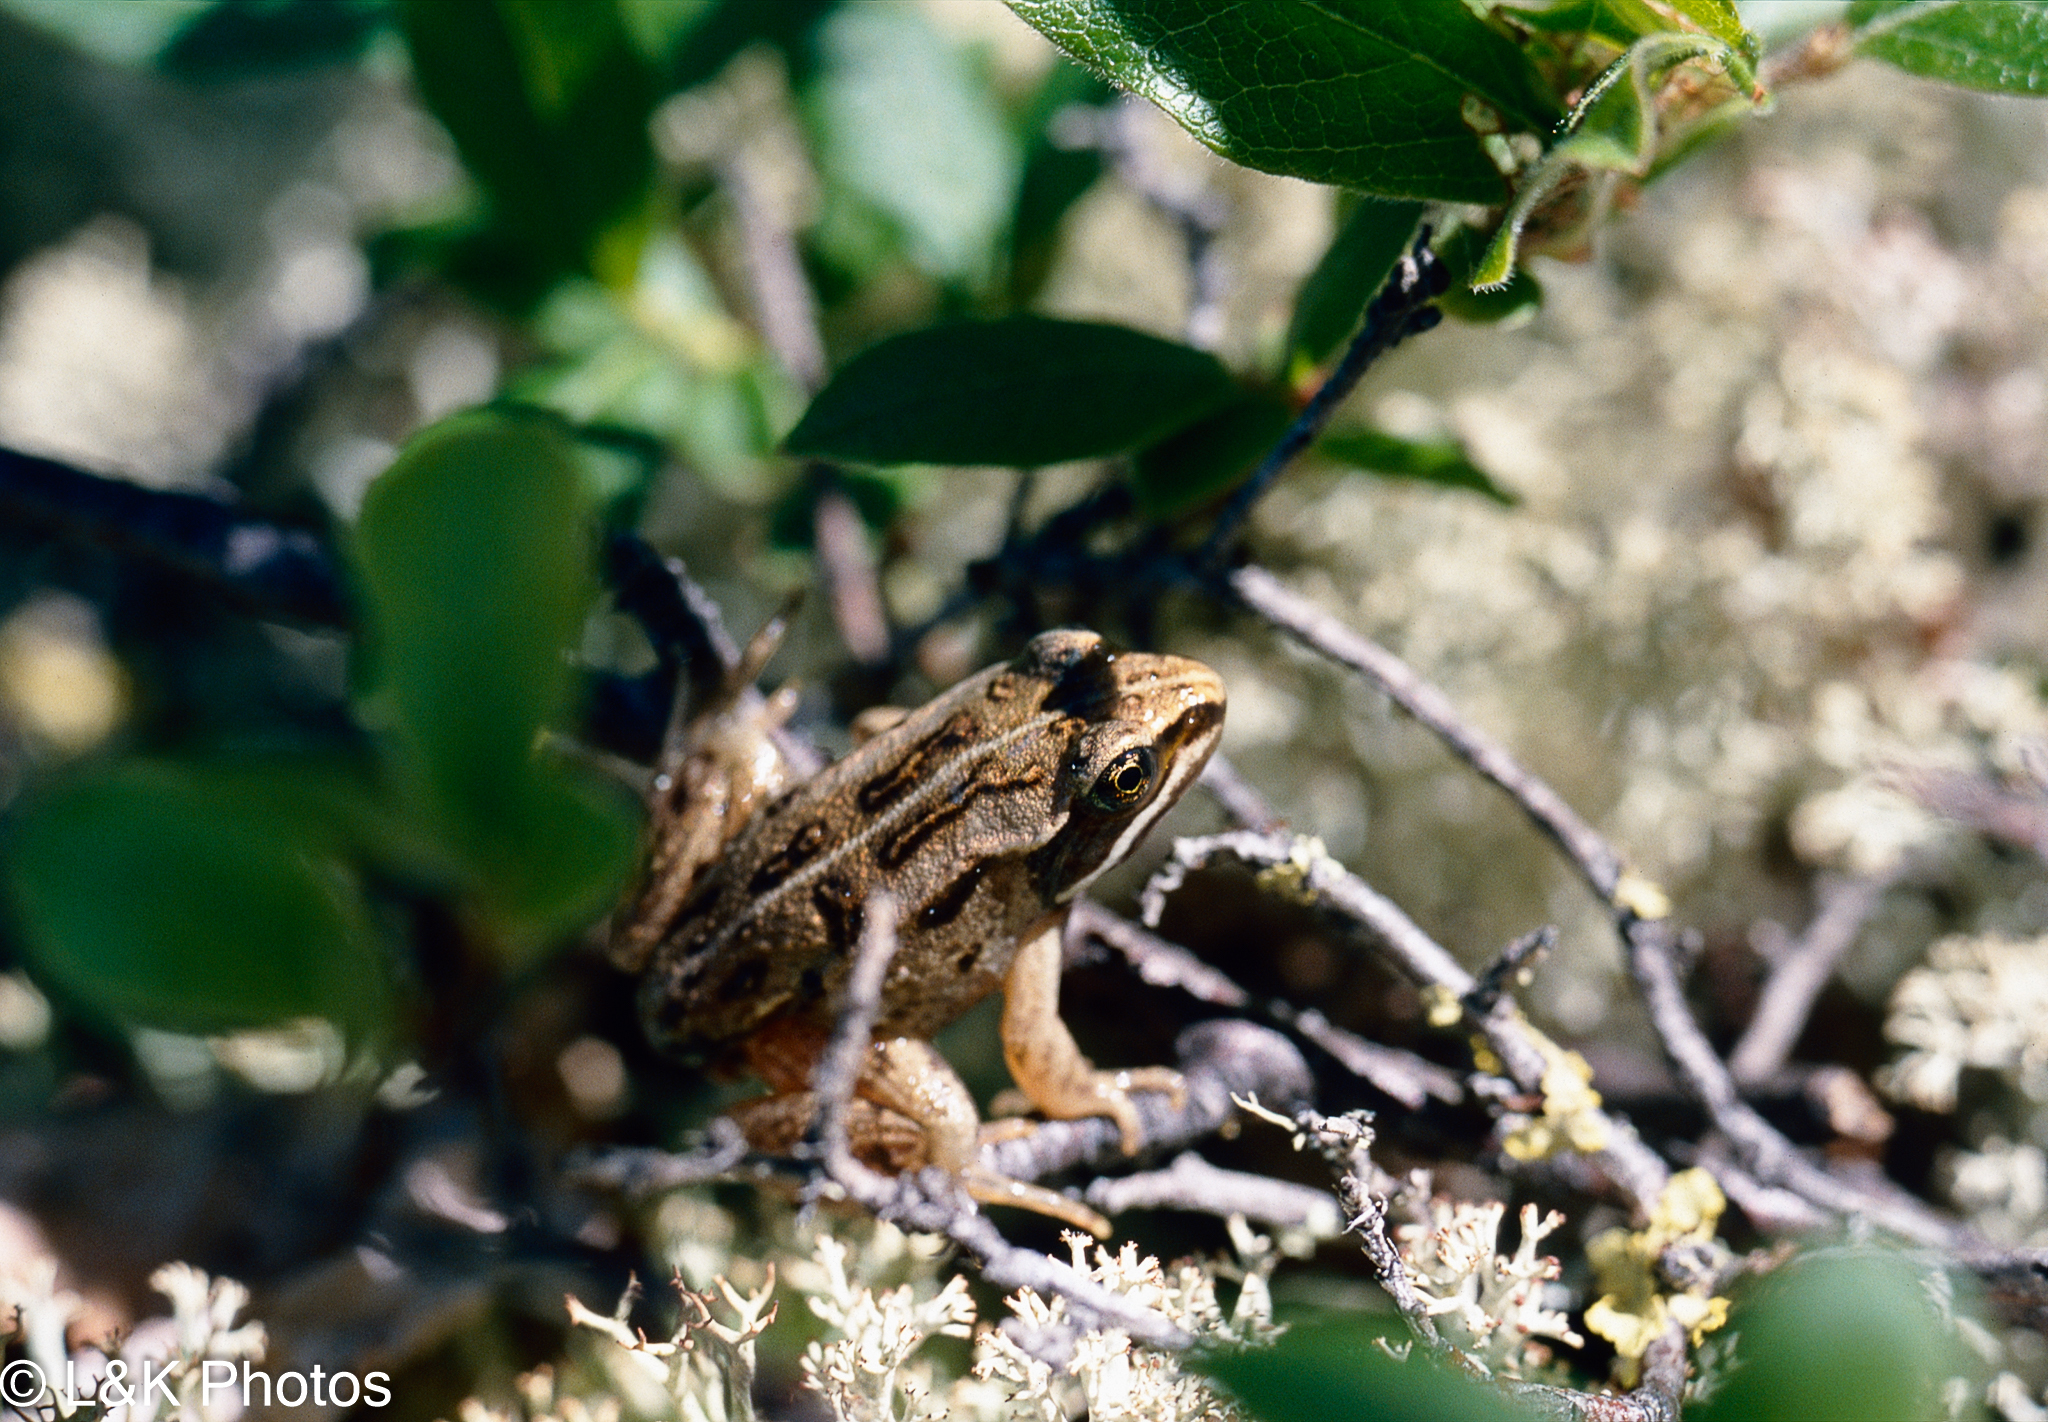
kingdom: Animalia
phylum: Chordata
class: Amphibia
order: Anura
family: Ranidae
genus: Lithobates
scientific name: Lithobates sylvaticus
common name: Wood frog
